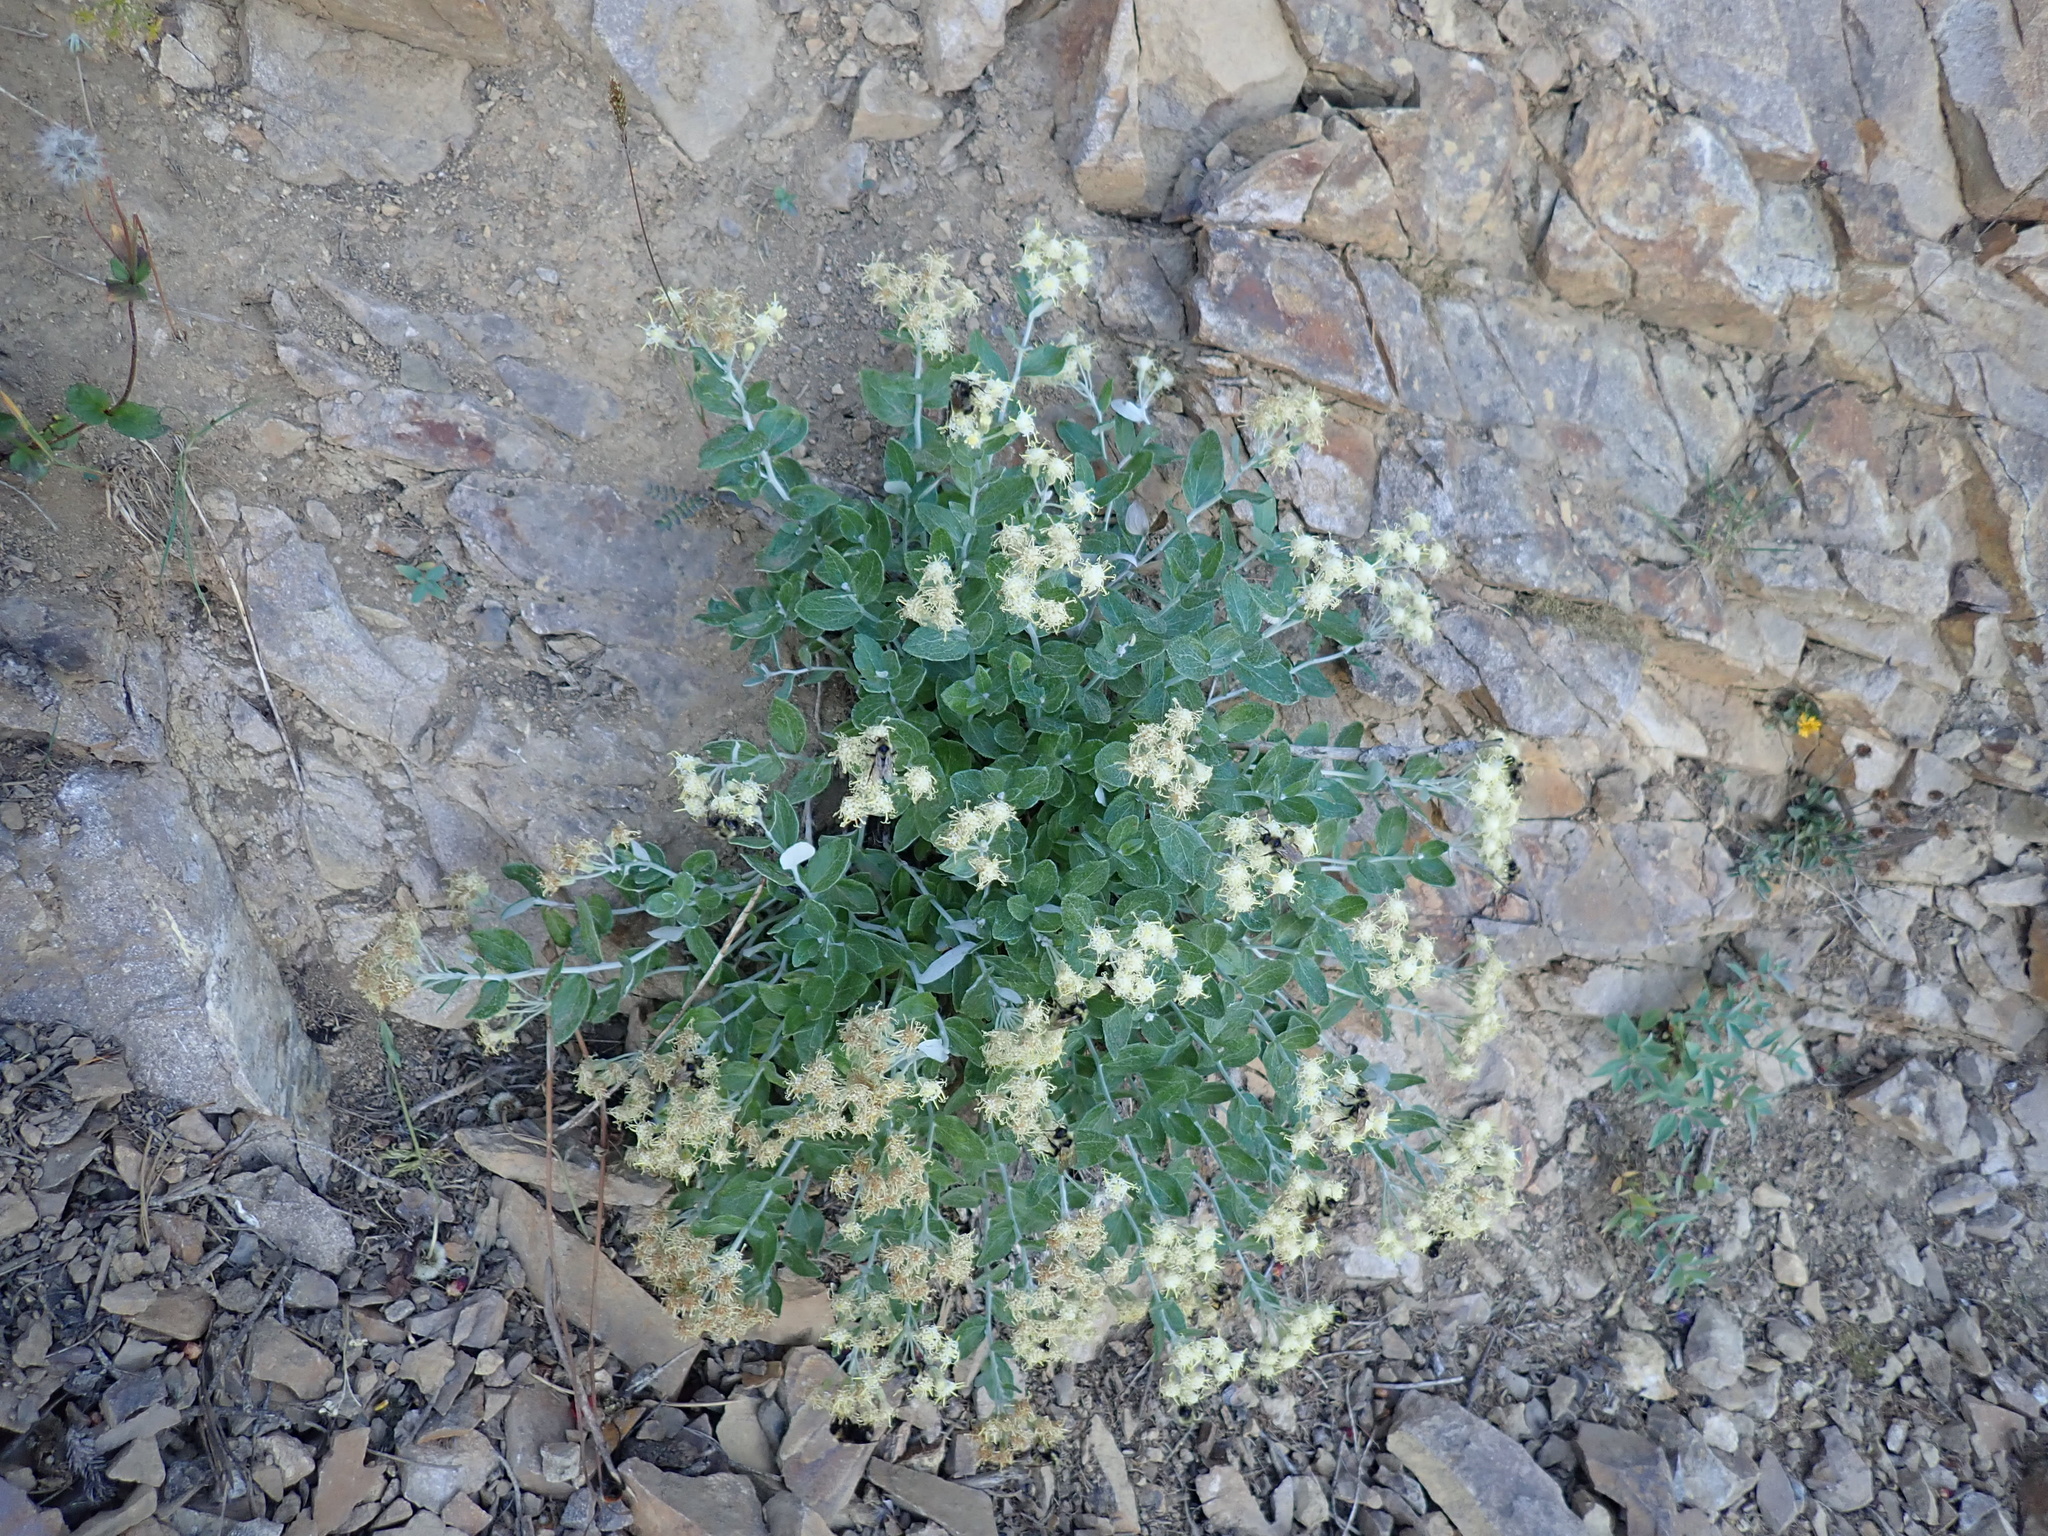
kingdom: Plantae
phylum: Tracheophyta
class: Magnoliopsida
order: Asterales
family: Asteraceae
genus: Luina
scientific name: Luina hypoleuca
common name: Little-leaved luina
